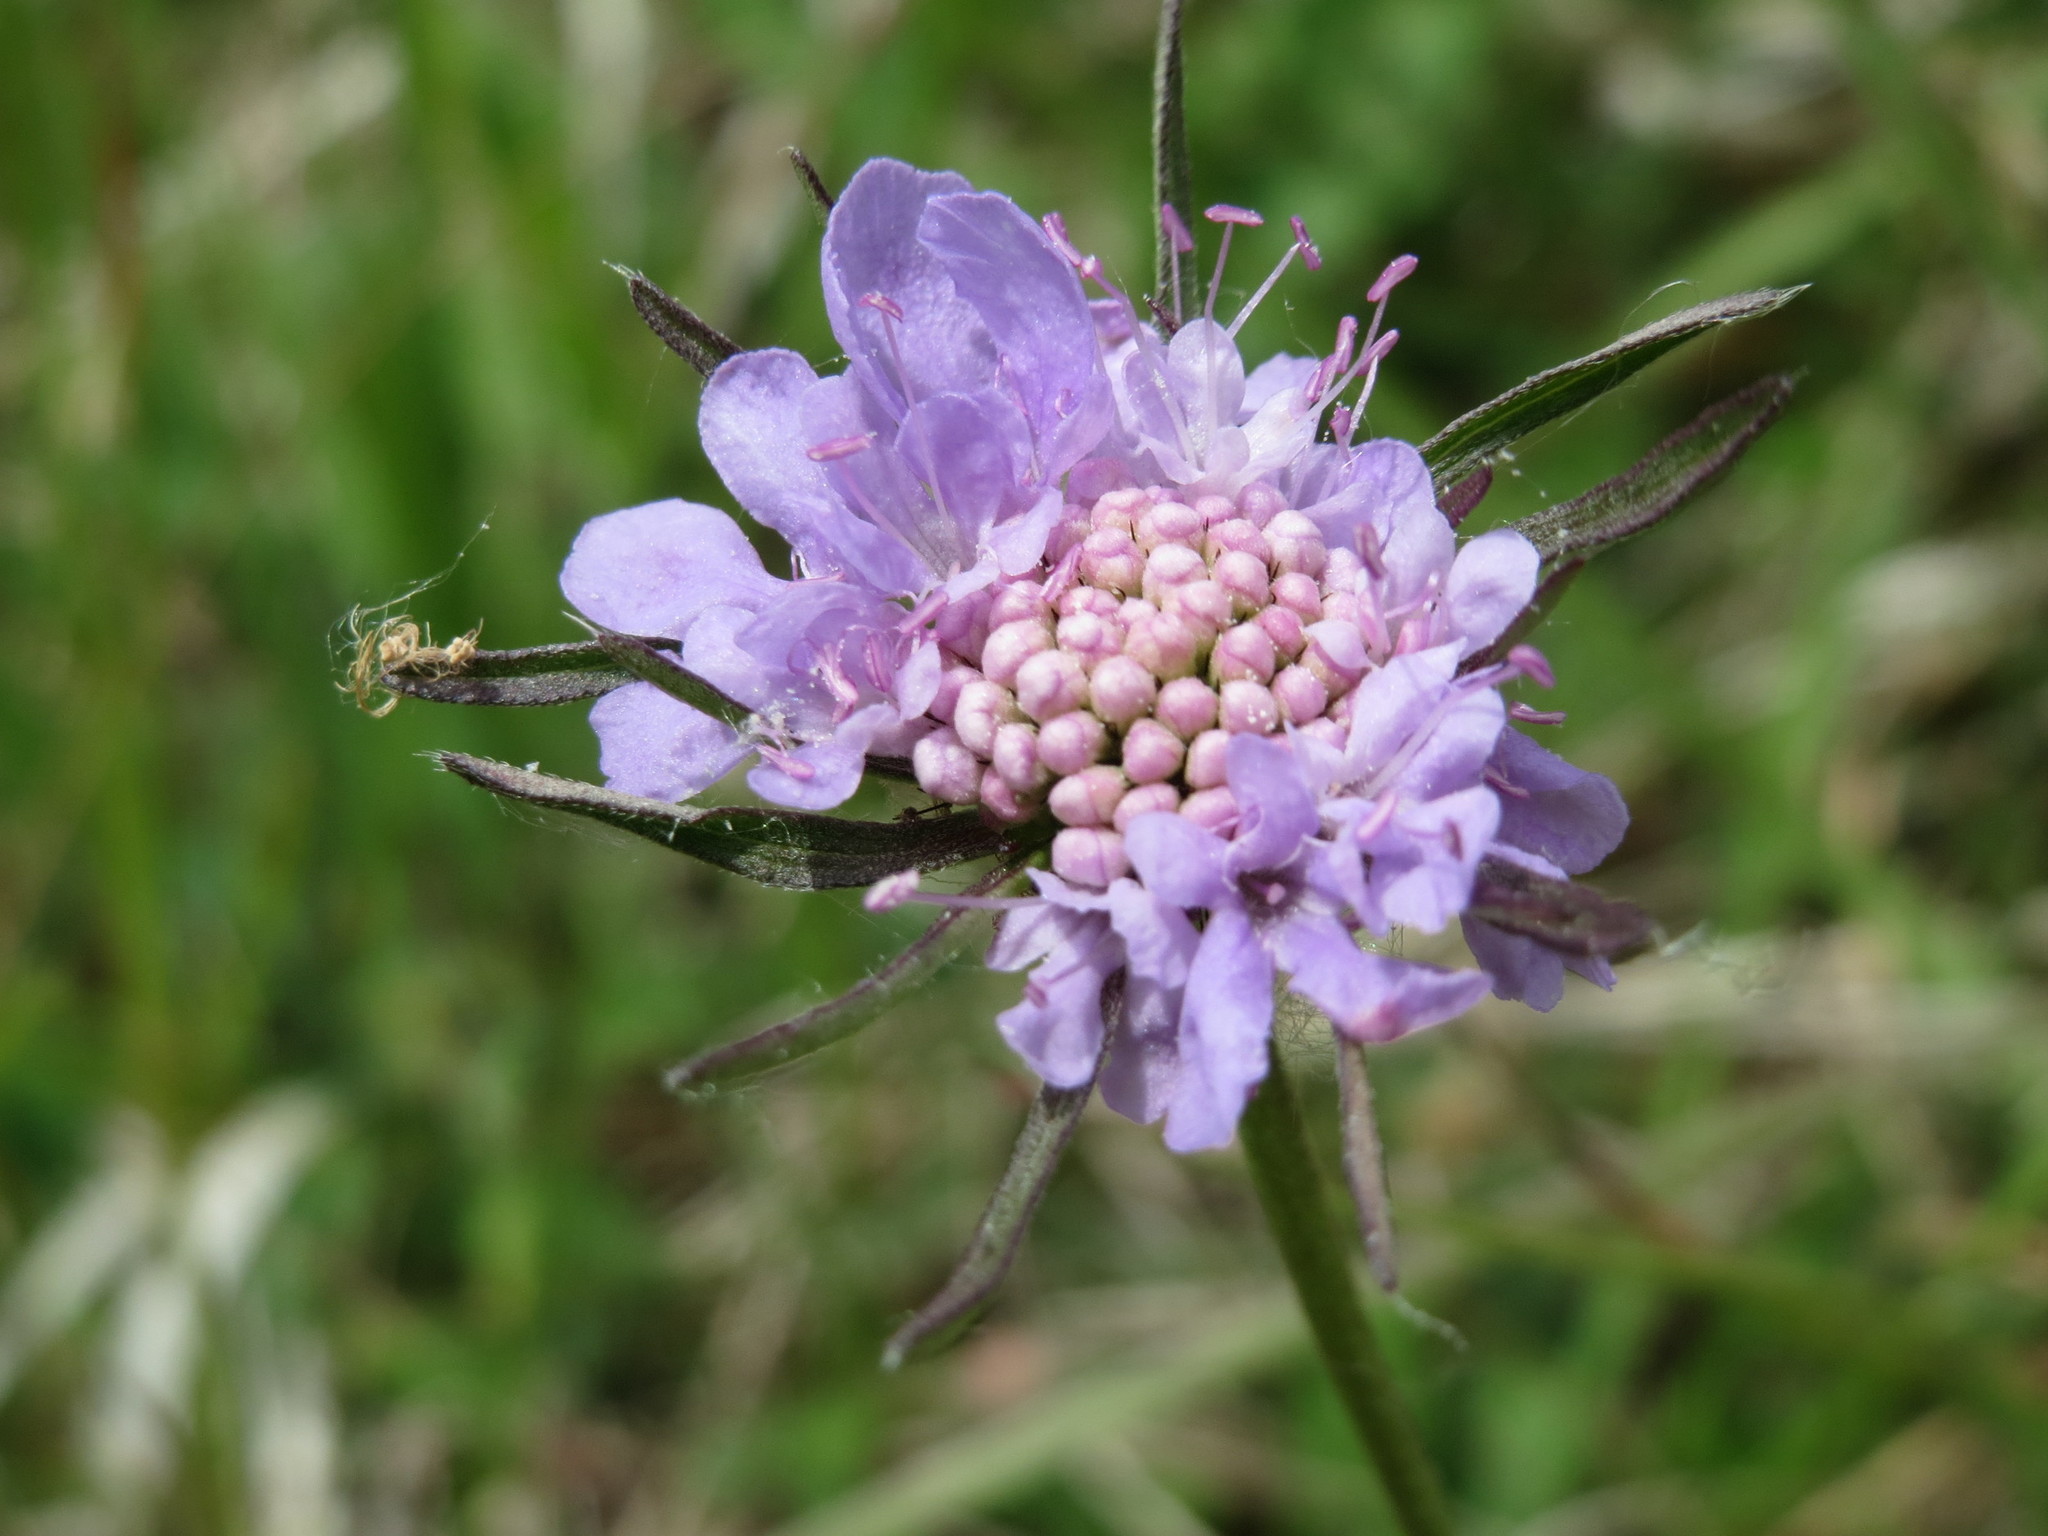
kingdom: Plantae
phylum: Tracheophyta
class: Magnoliopsida
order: Dipsacales
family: Caprifoliaceae
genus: Scabiosa
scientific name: Scabiosa columbaria
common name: Small scabious
